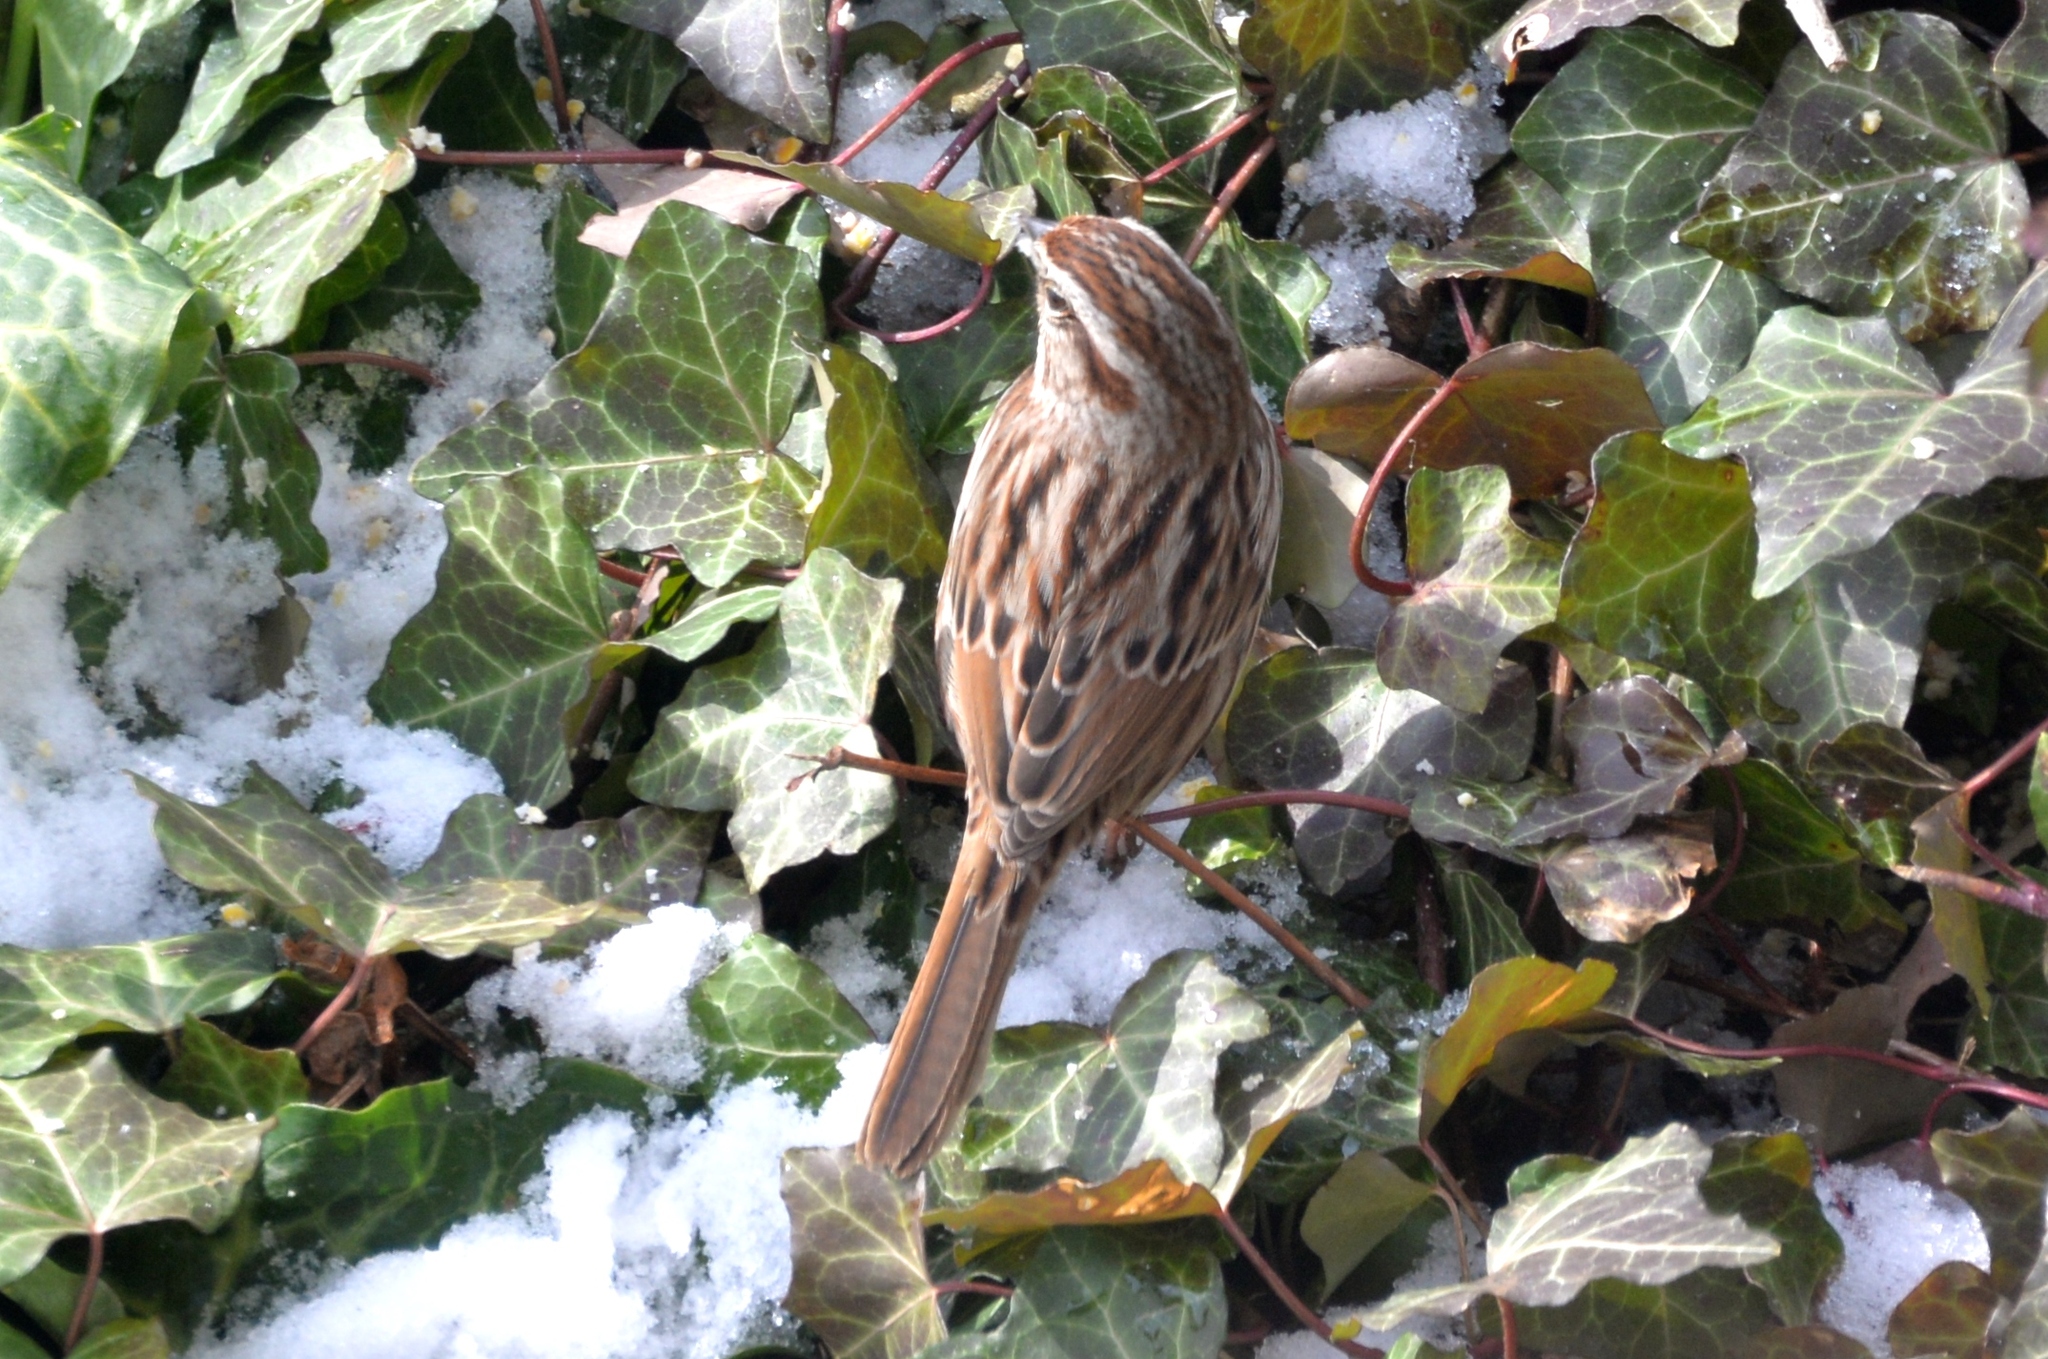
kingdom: Animalia
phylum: Chordata
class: Aves
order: Passeriformes
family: Passerellidae
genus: Melospiza
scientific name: Melospiza melodia
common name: Song sparrow
